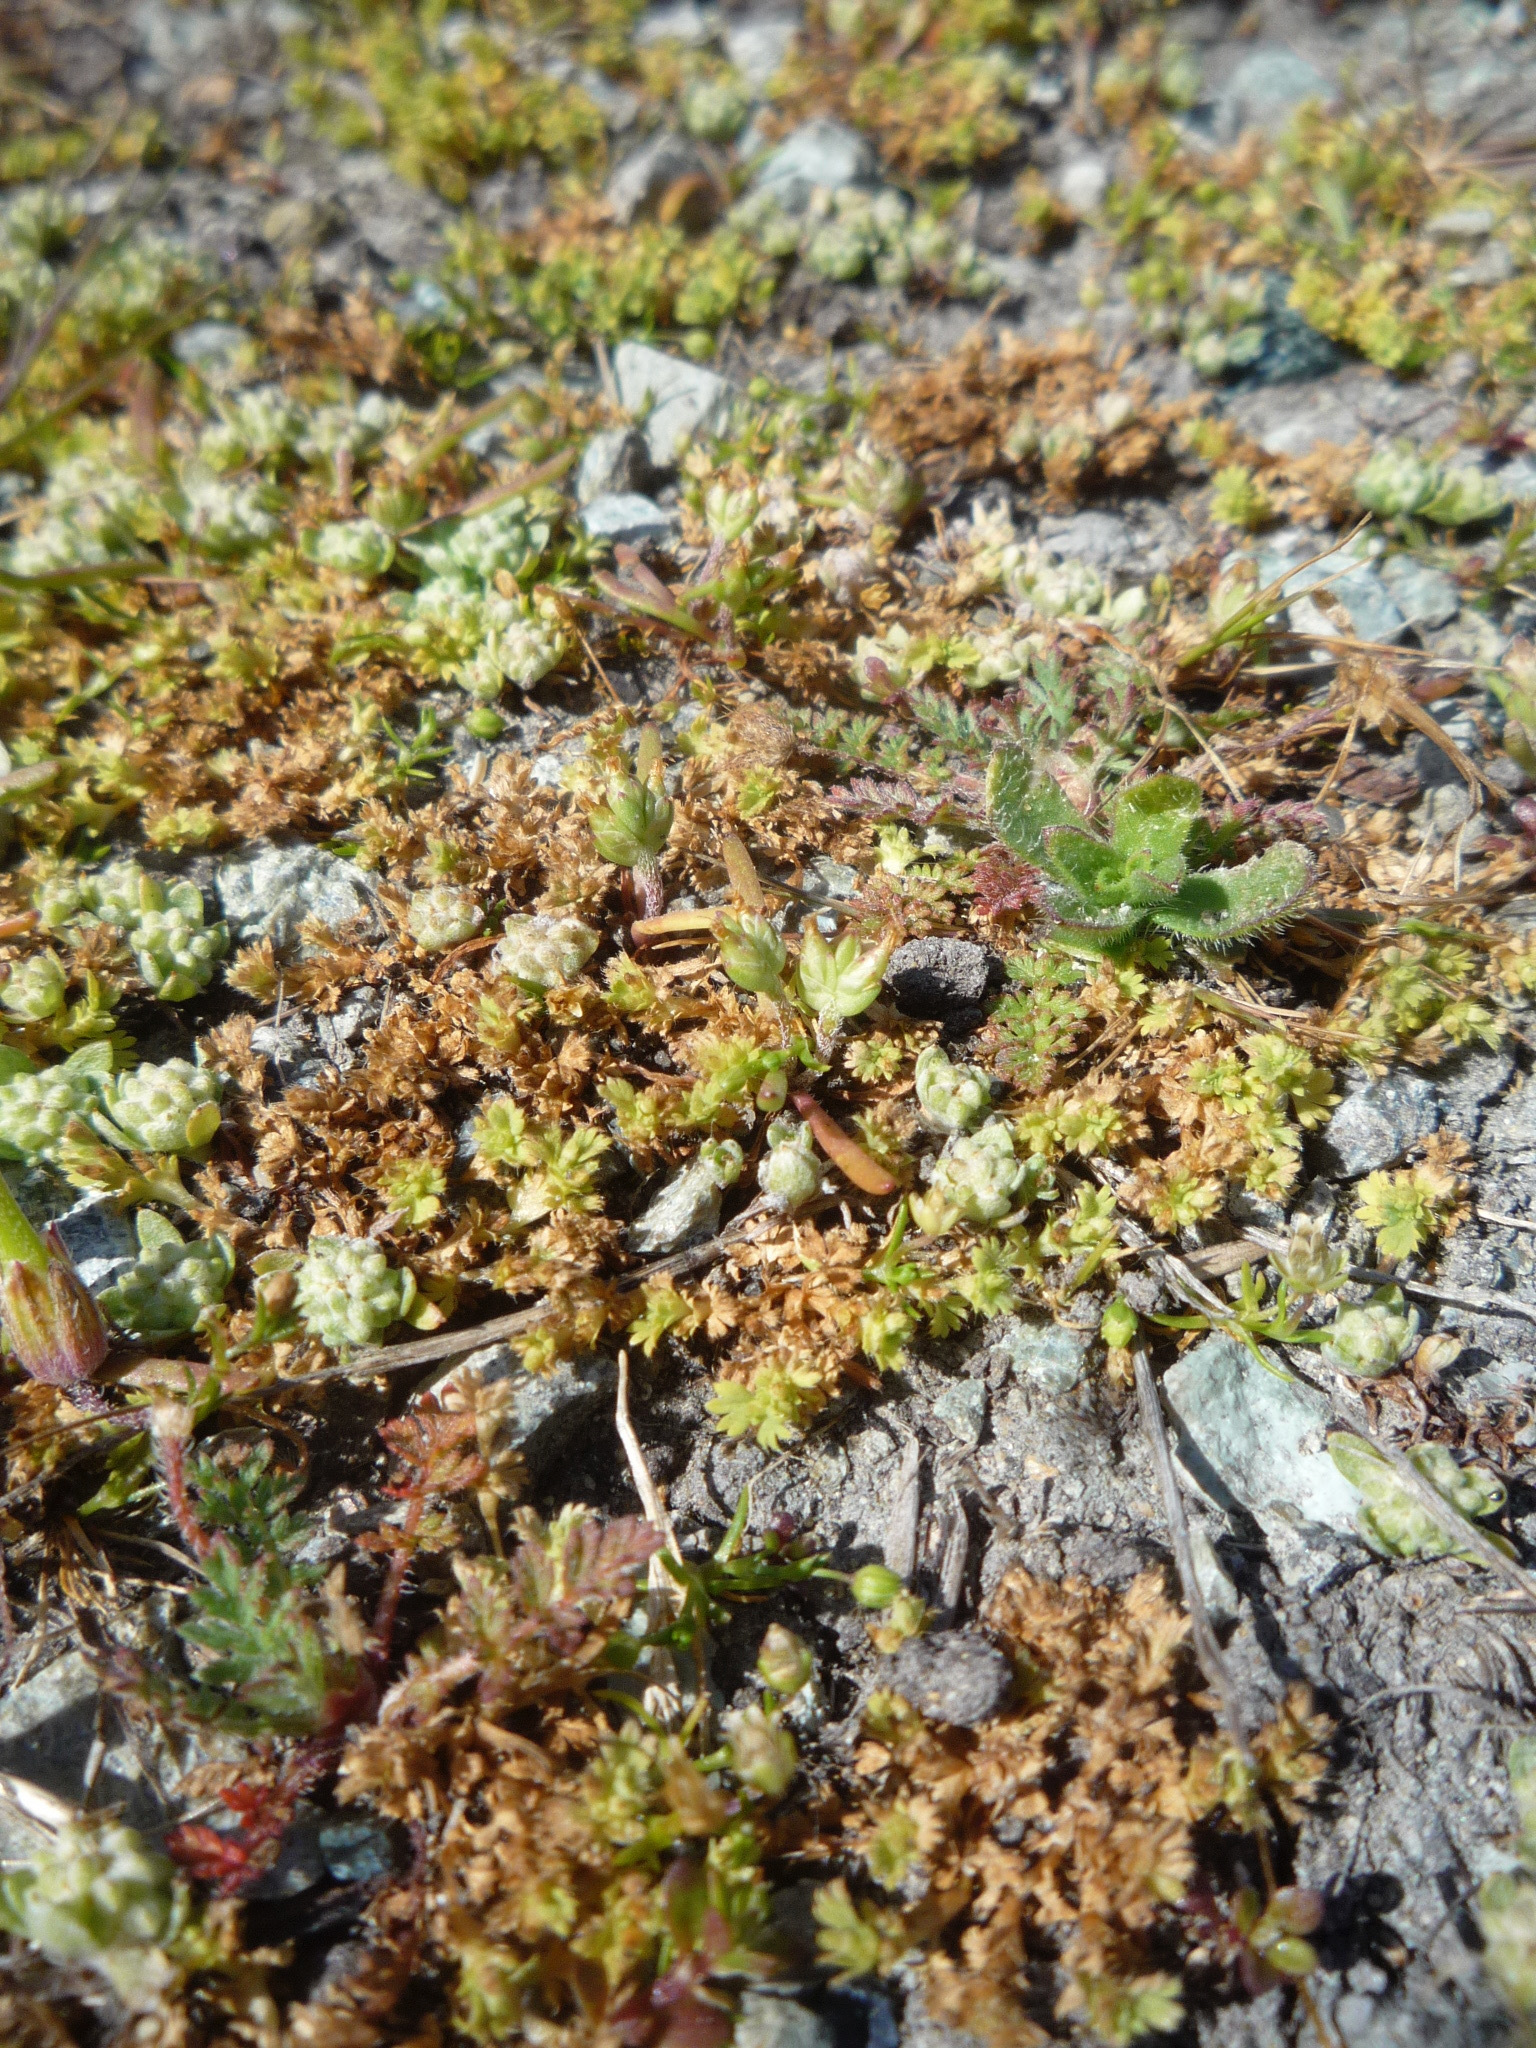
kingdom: Plantae
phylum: Tracheophyta
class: Magnoliopsida
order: Rosales
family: Rosaceae
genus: Aphanes
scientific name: Aphanes arvensis
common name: Parsley-piert
